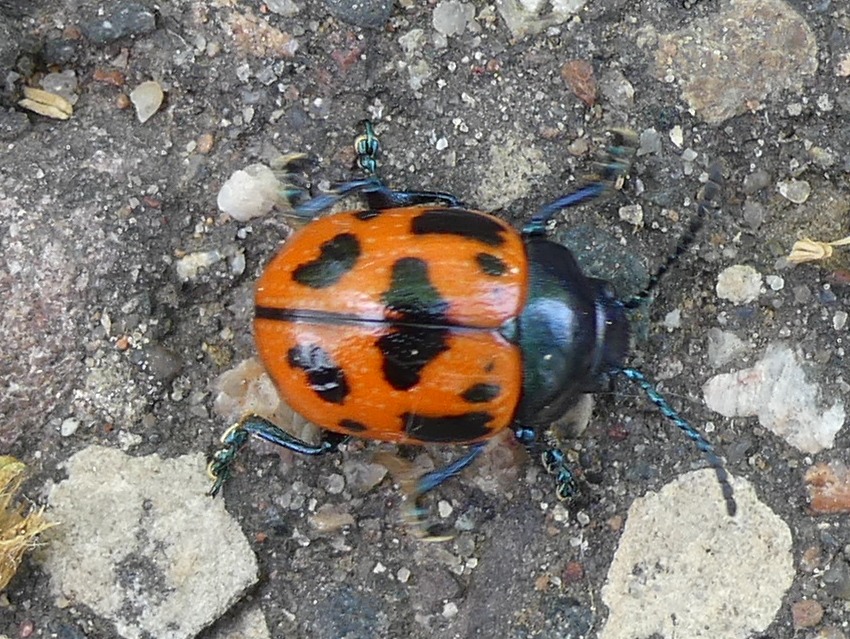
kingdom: Animalia
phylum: Arthropoda
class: Insecta
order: Coleoptera
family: Chrysomelidae
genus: Labidomera
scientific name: Labidomera clivicollis
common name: Swamp milkweed leaf beetle
